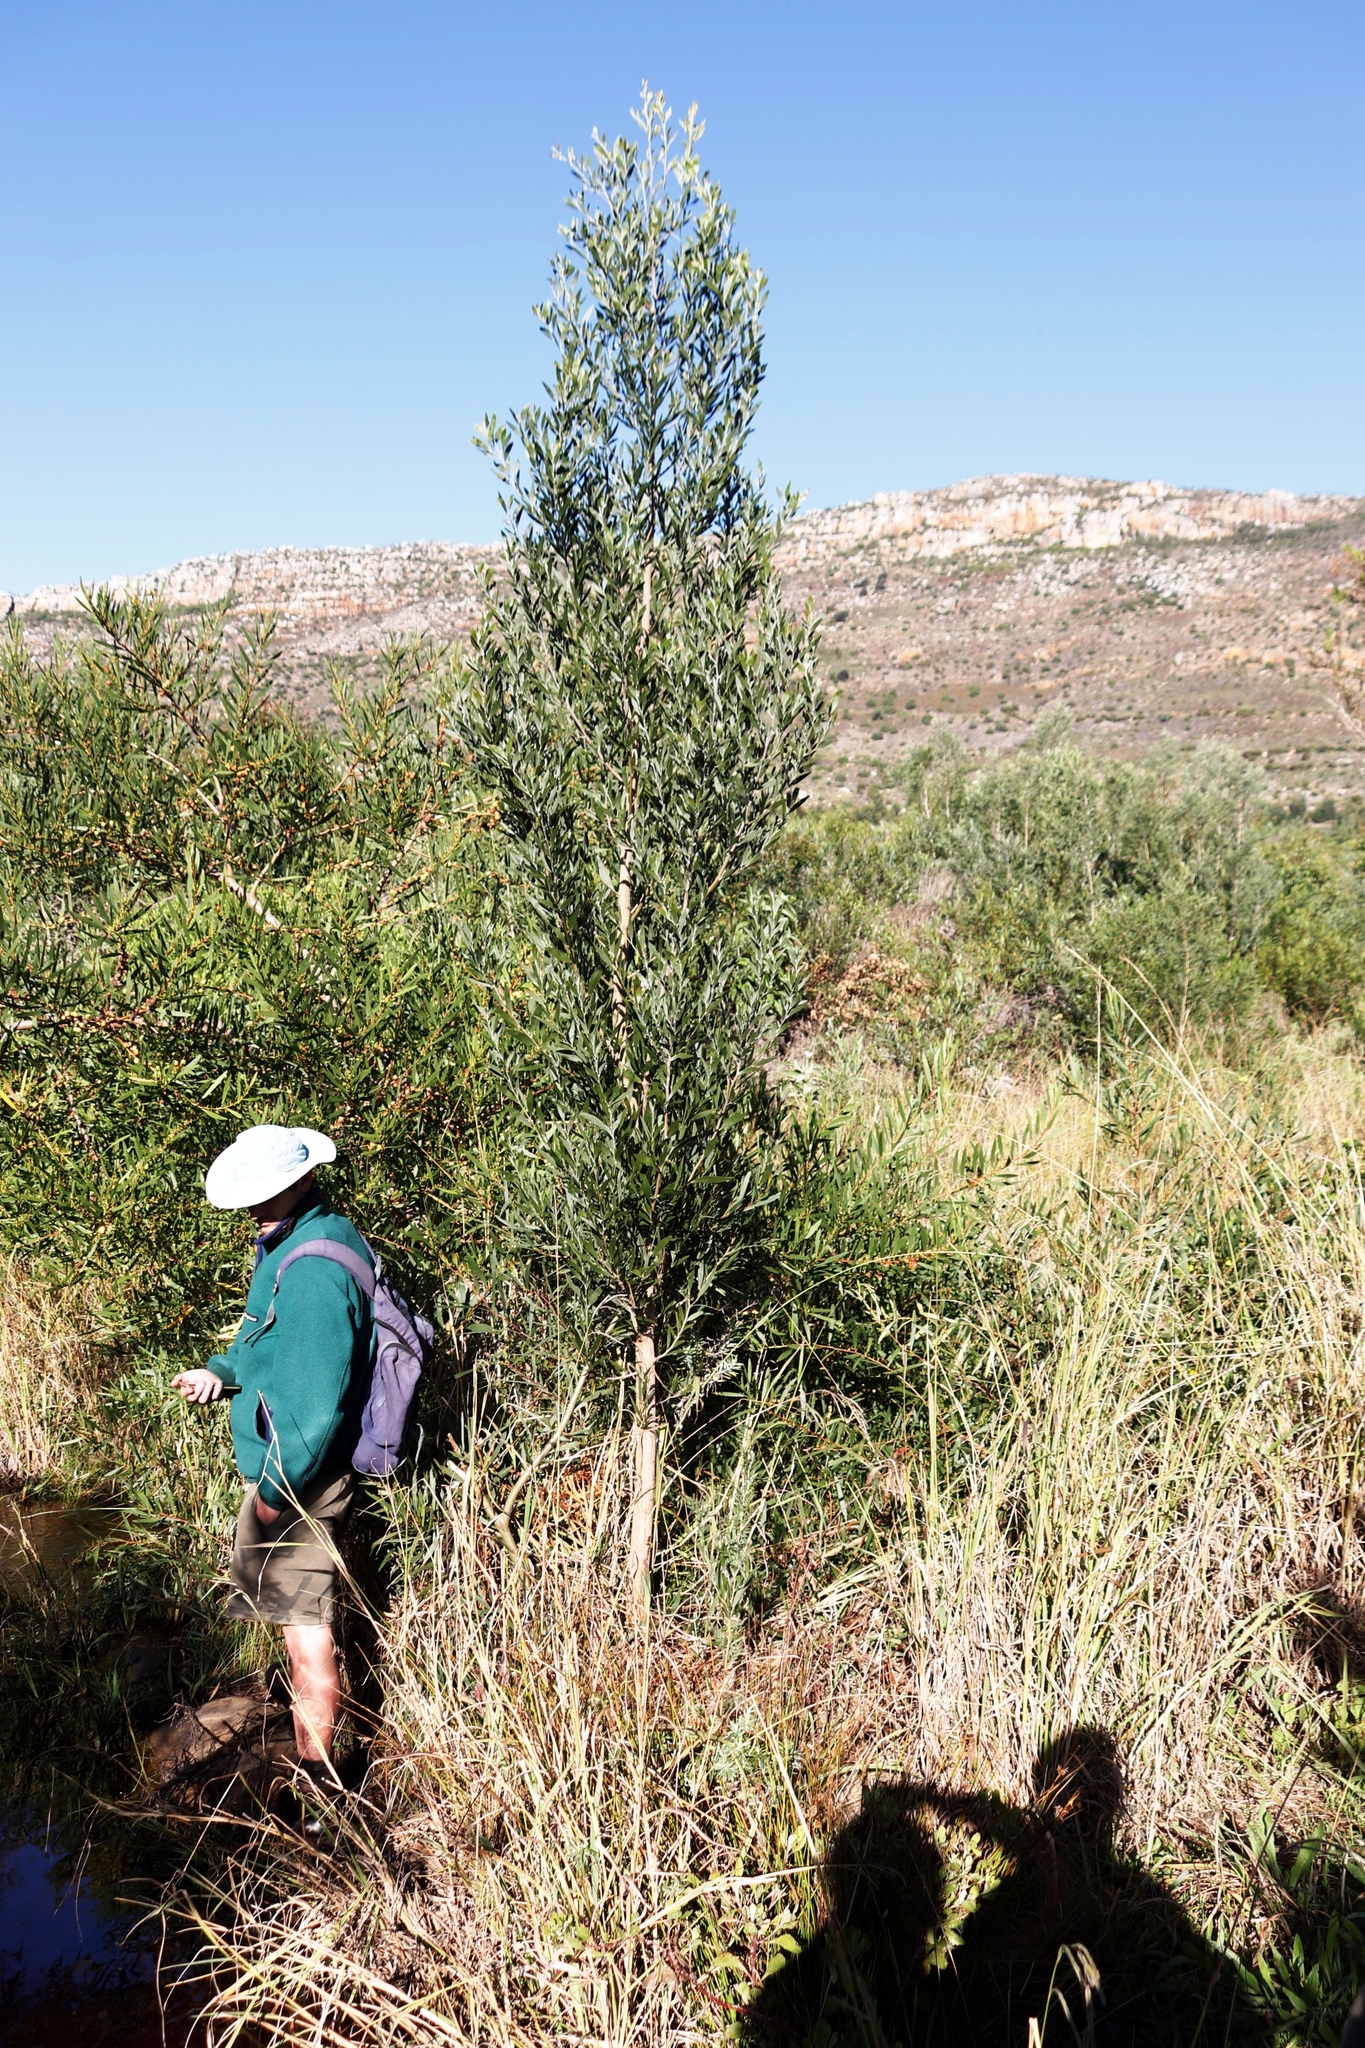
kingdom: Plantae
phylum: Tracheophyta
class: Magnoliopsida
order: Fabales
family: Fabaceae
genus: Acacia
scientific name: Acacia melanoxylon
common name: Blackwood
